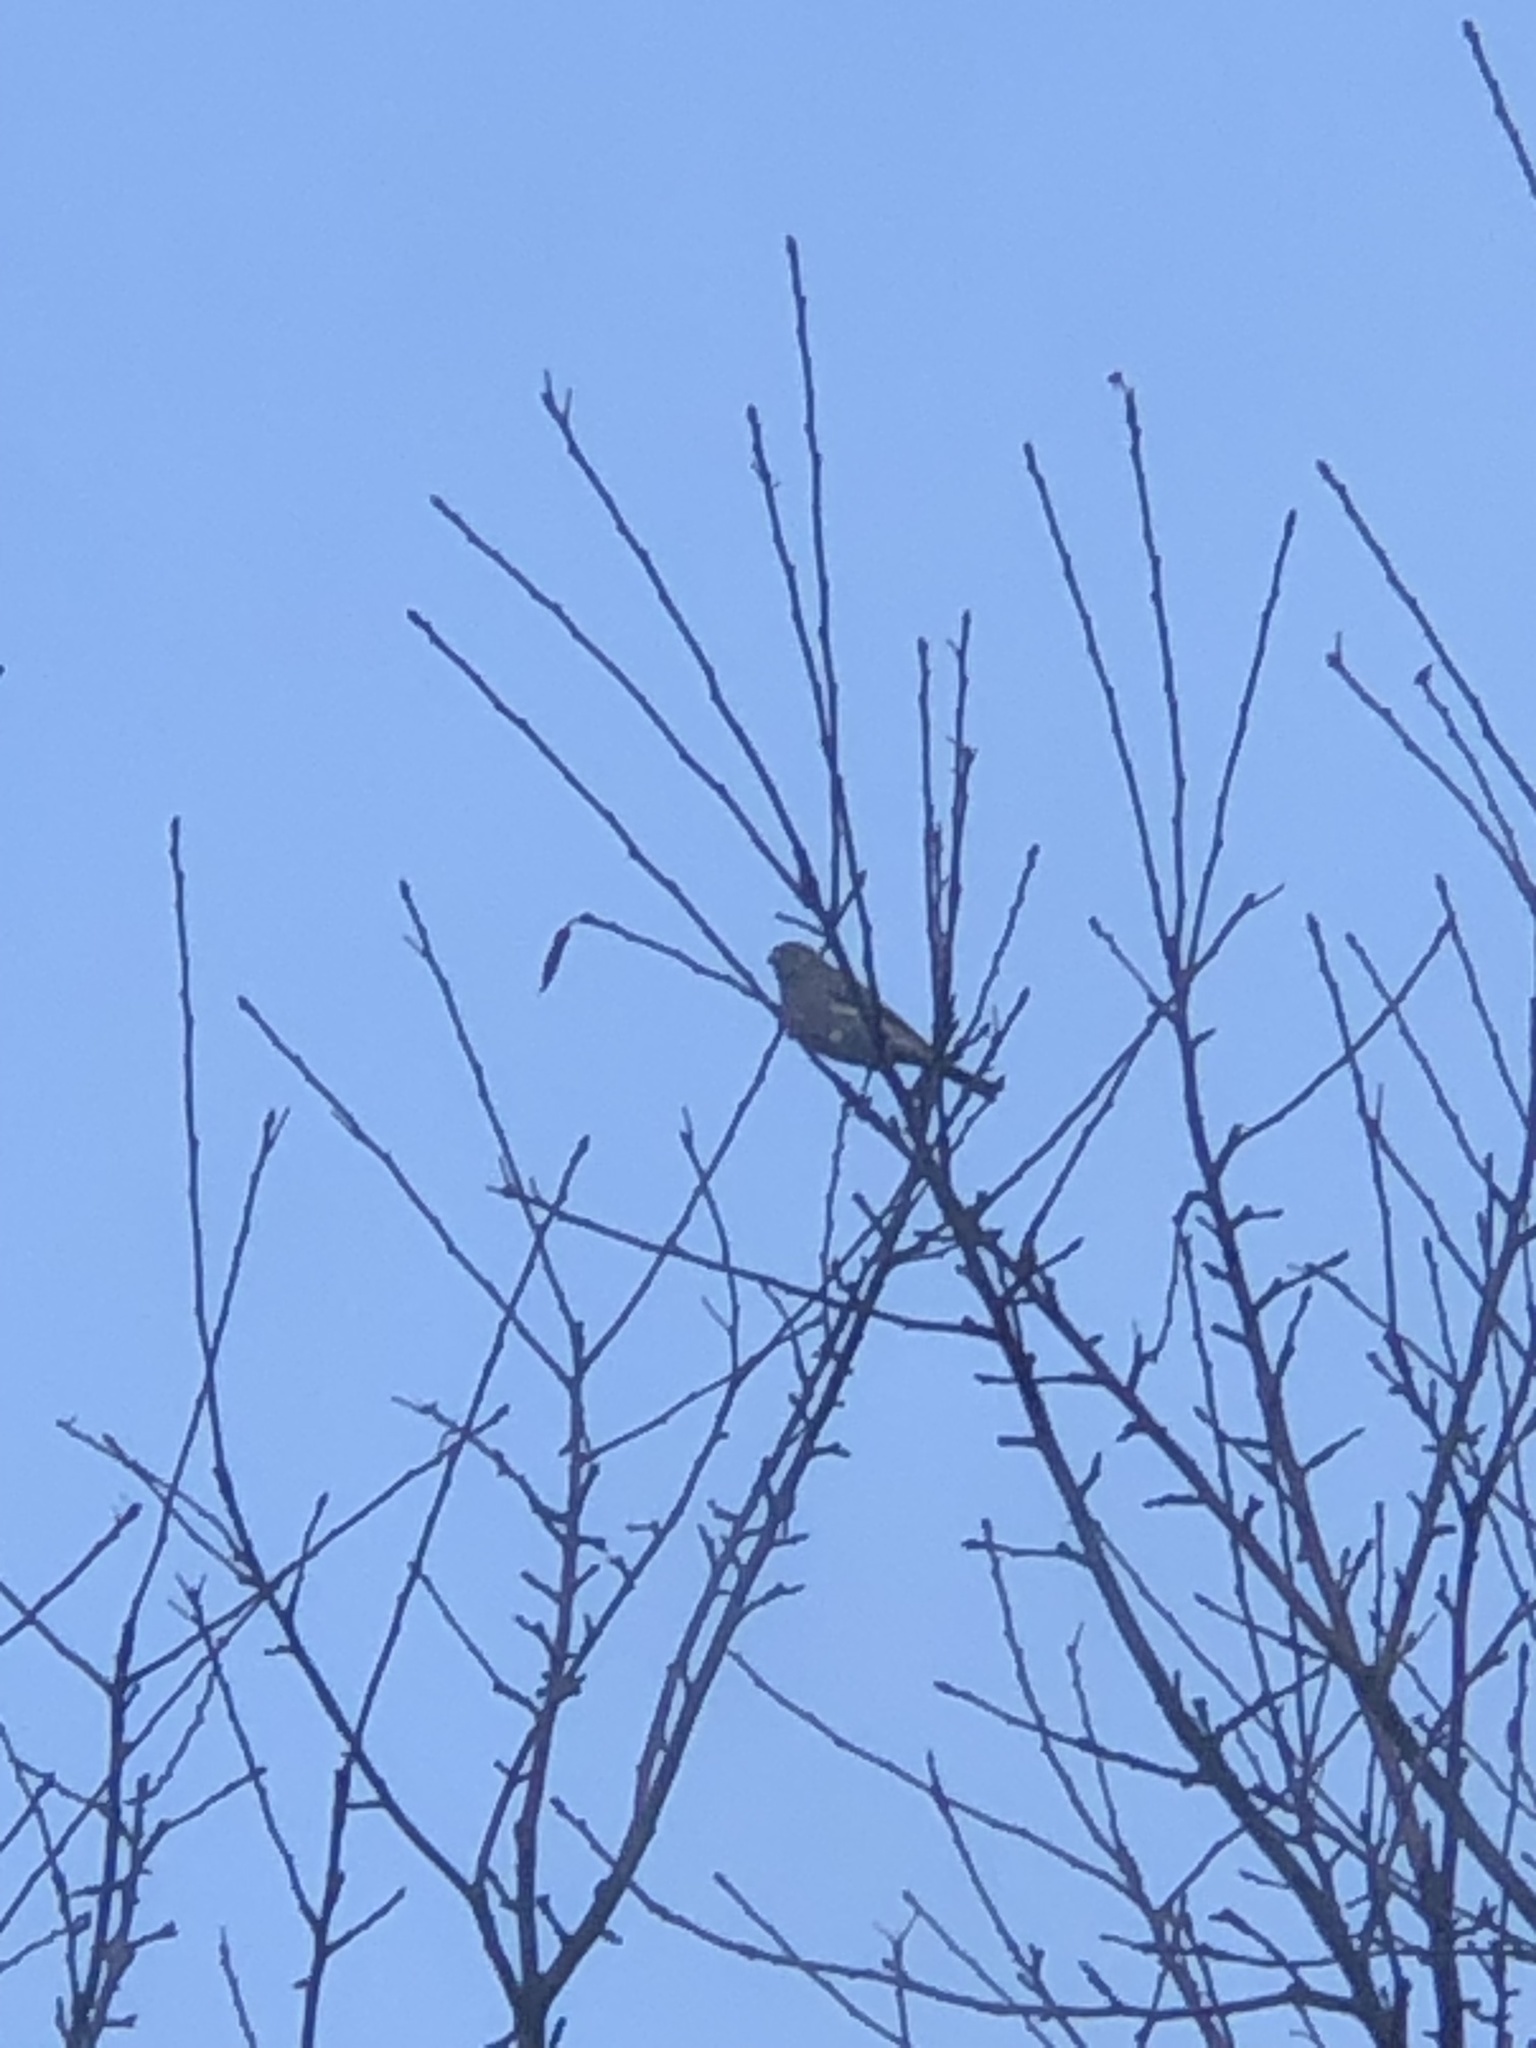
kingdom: Animalia
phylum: Chordata
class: Aves
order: Passeriformes
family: Fringillidae
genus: Haemorhous
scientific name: Haemorhous mexicanus
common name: House finch
